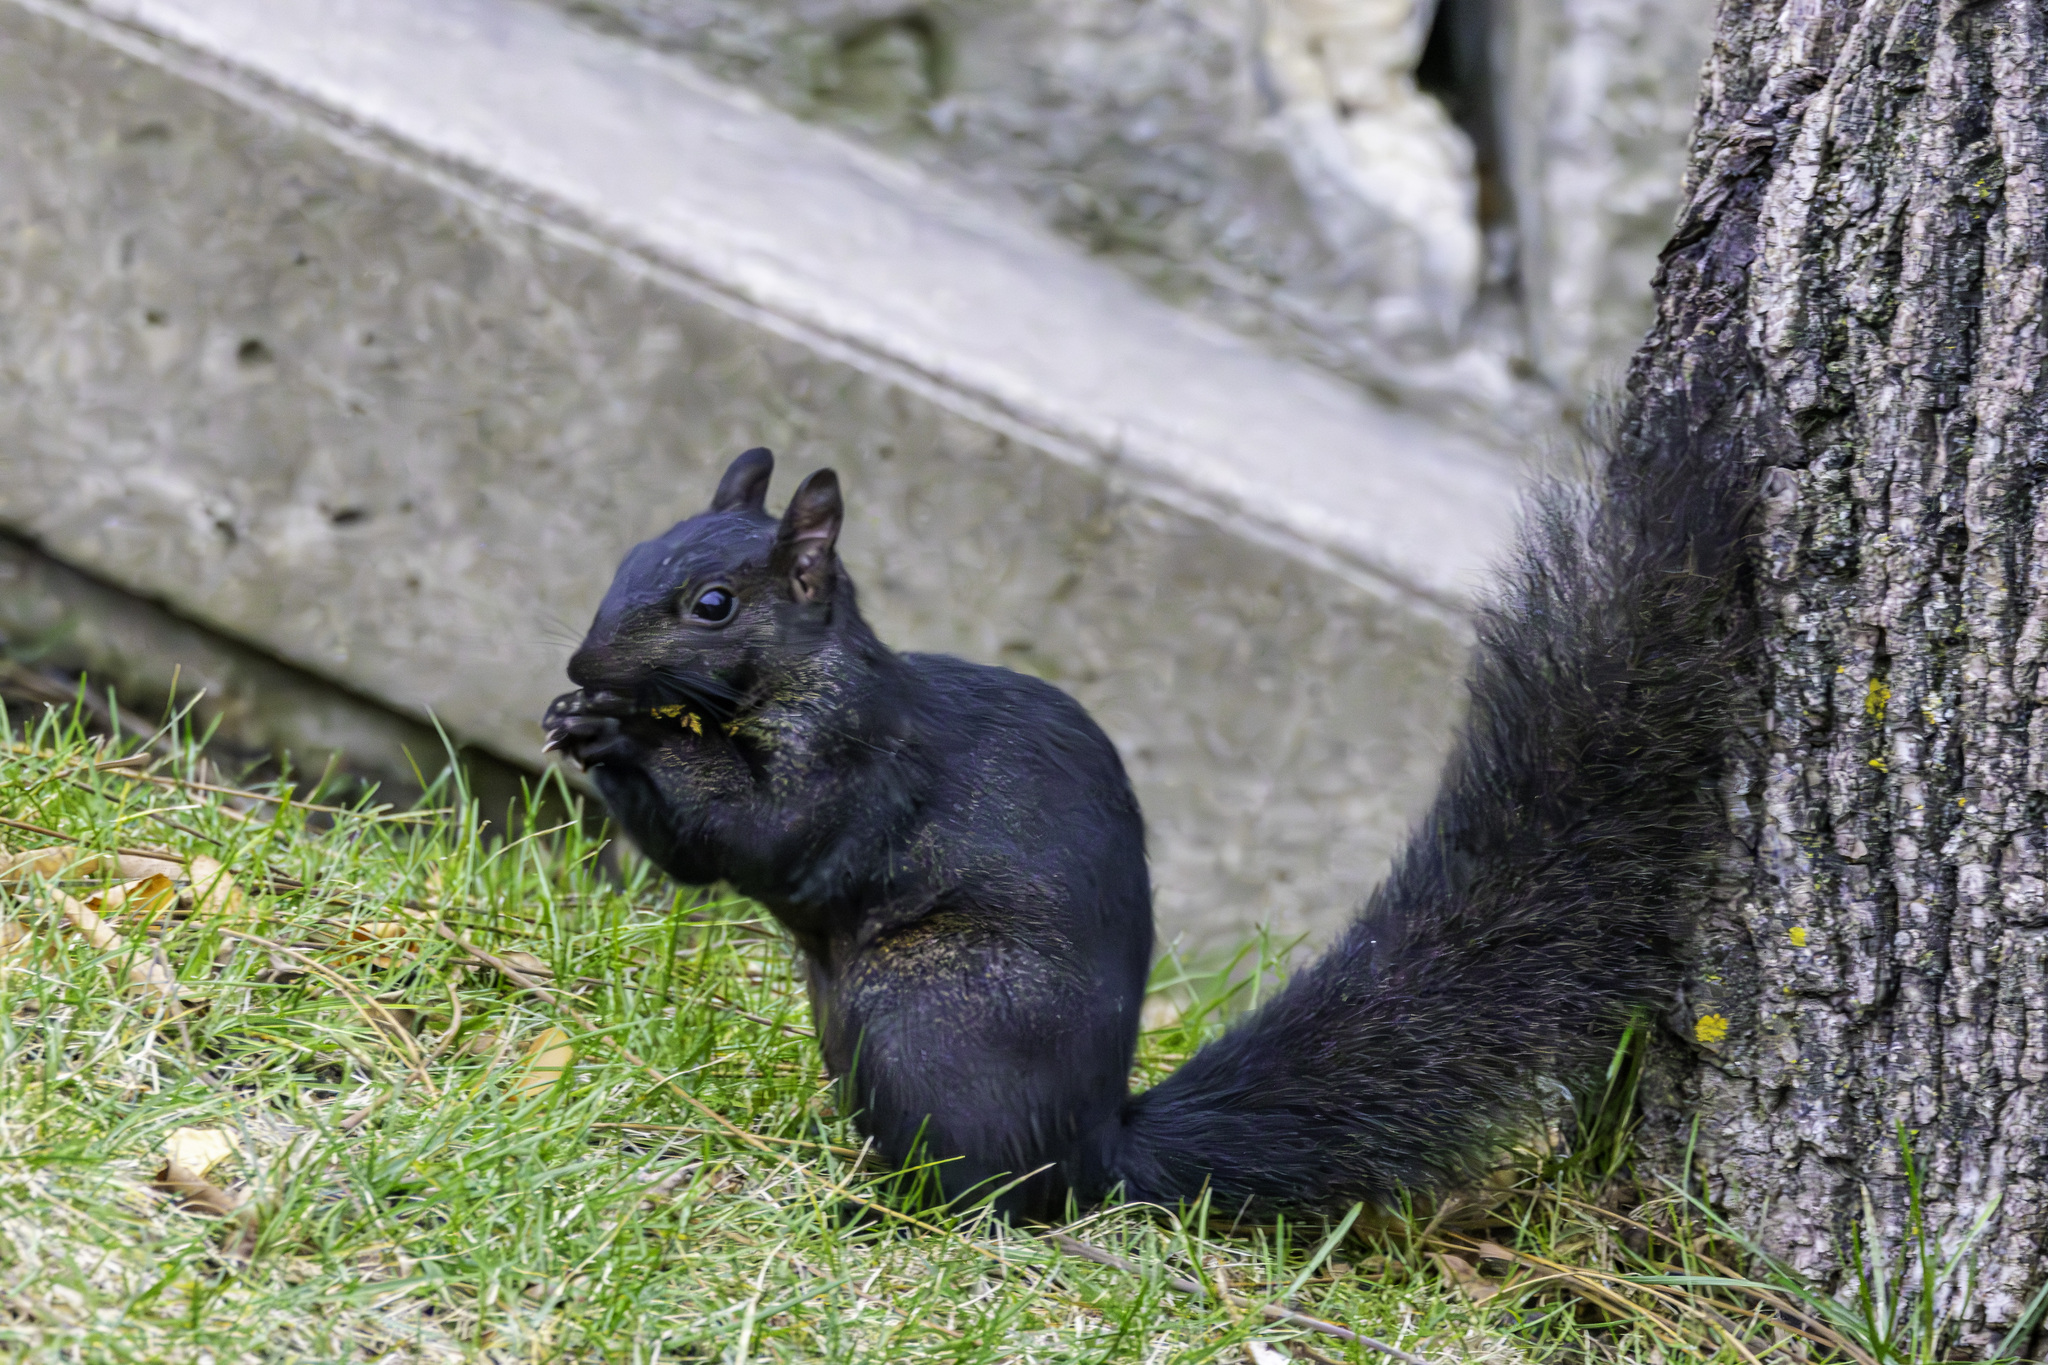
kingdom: Animalia
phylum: Chordata
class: Mammalia
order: Rodentia
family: Sciuridae
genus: Sciurus
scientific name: Sciurus carolinensis
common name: Eastern gray squirrel
